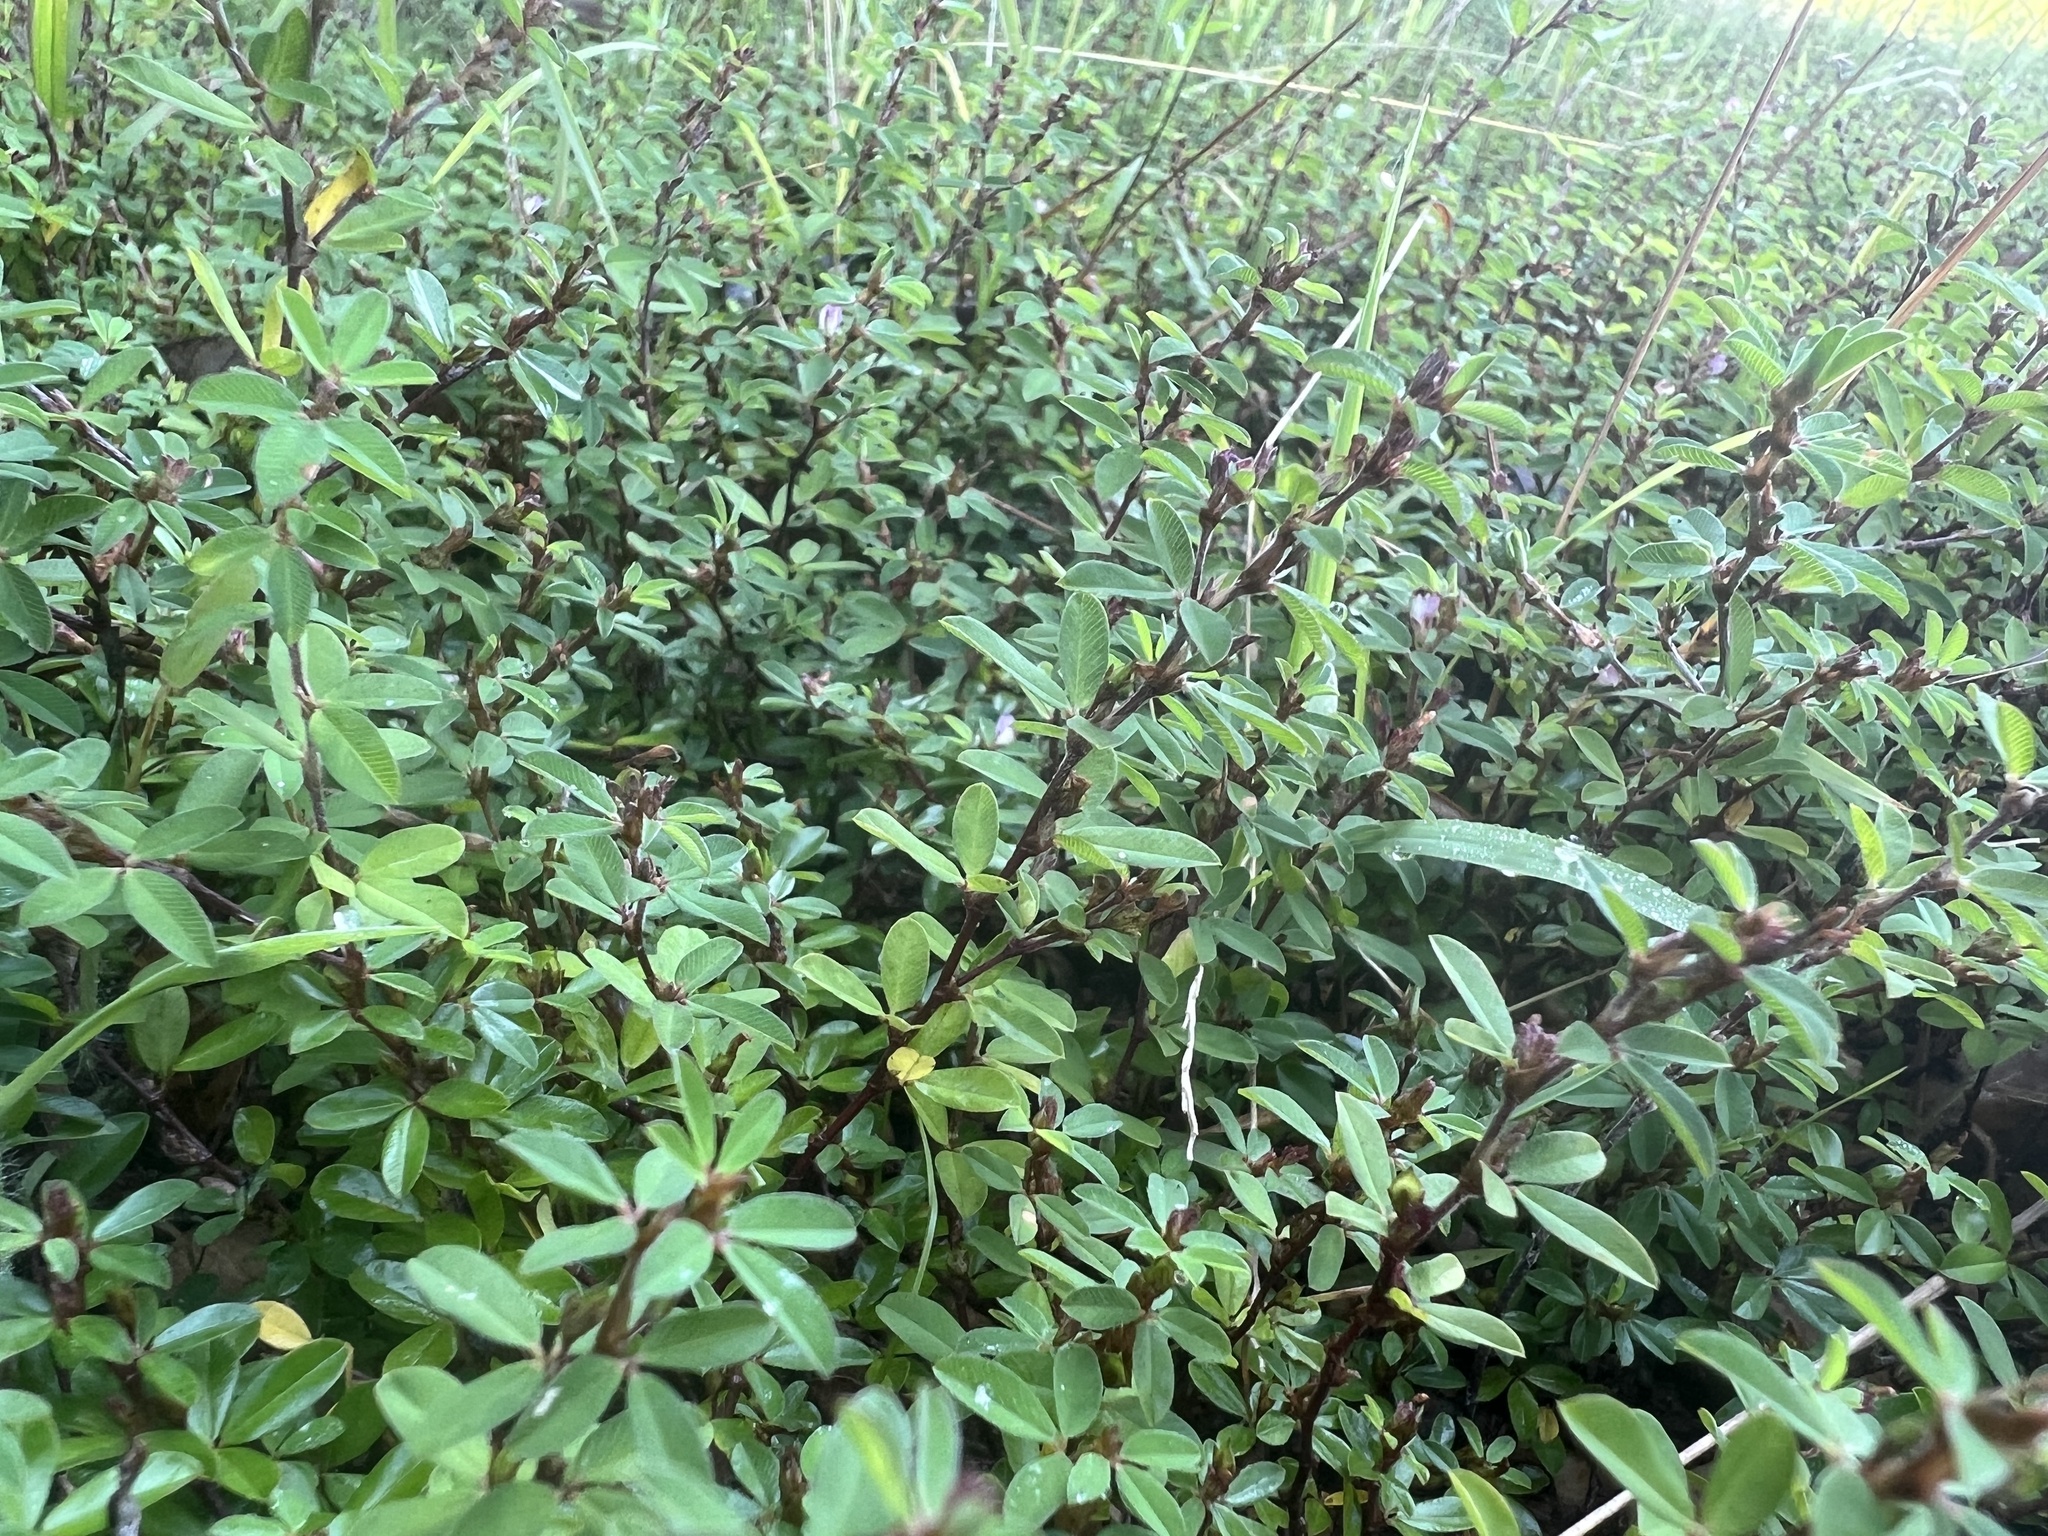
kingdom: Plantae
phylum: Tracheophyta
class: Magnoliopsida
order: Fabales
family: Fabaceae
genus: Kummerowia
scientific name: Kummerowia striata
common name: Japanese clover
